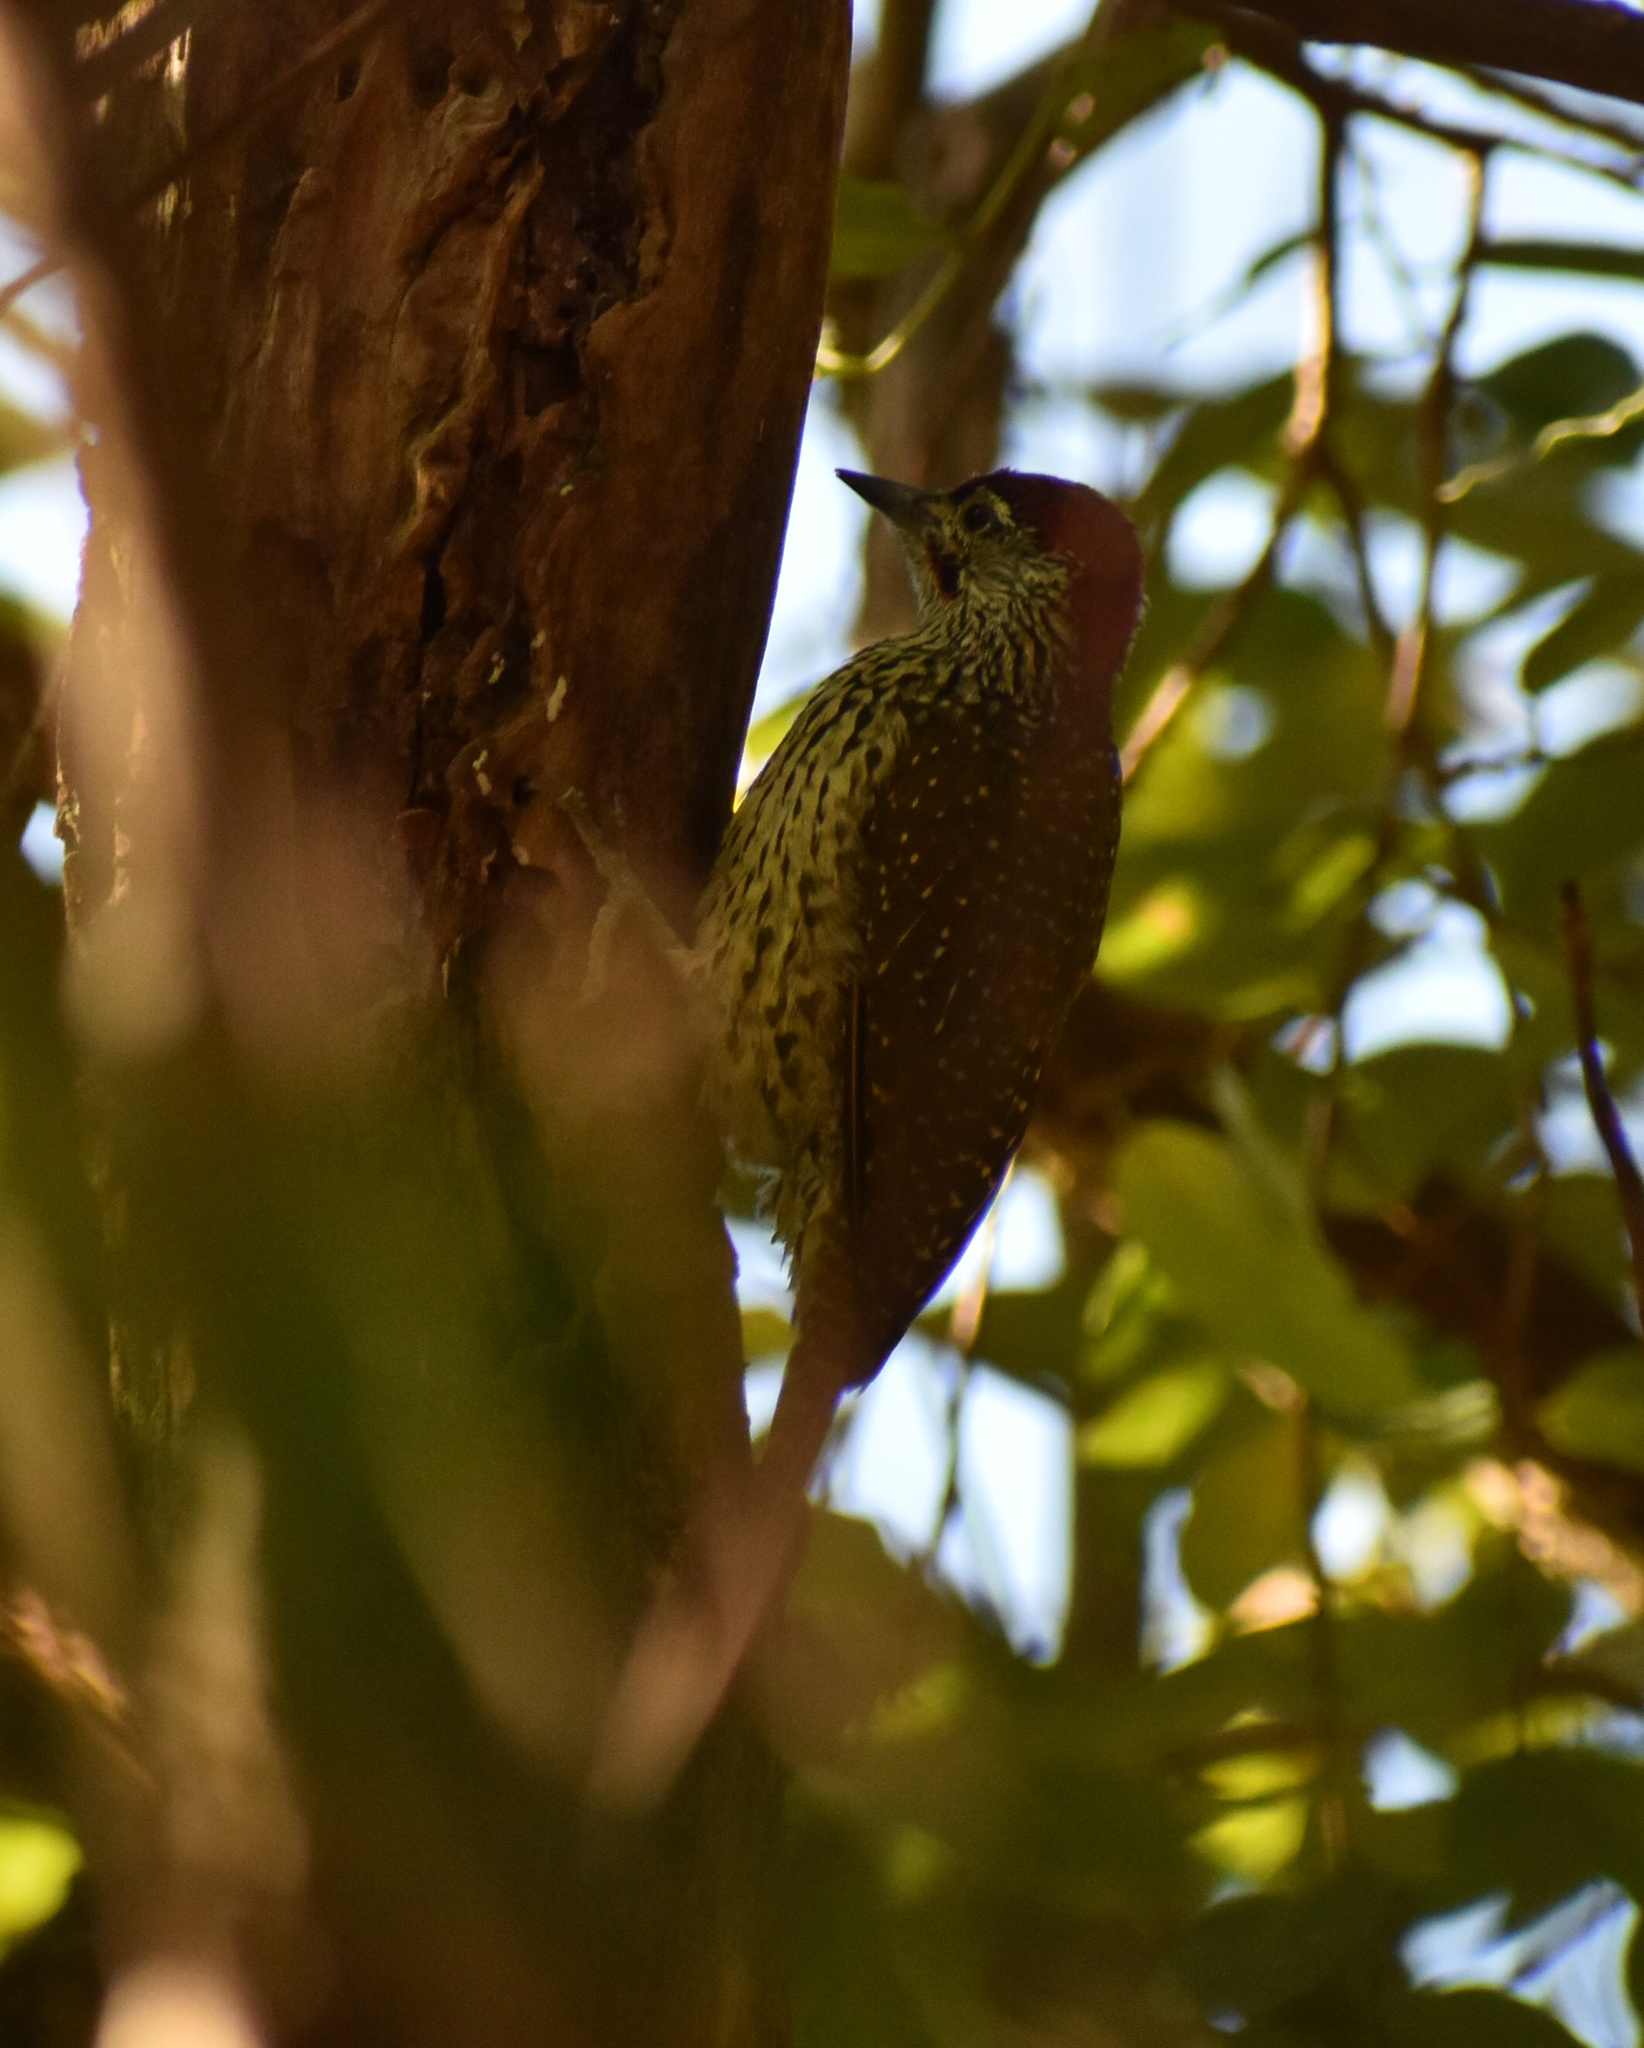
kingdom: Animalia
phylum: Chordata
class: Aves
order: Piciformes
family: Picidae
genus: Campethera
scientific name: Campethera abingoni
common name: Golden-tailed woodpecker
